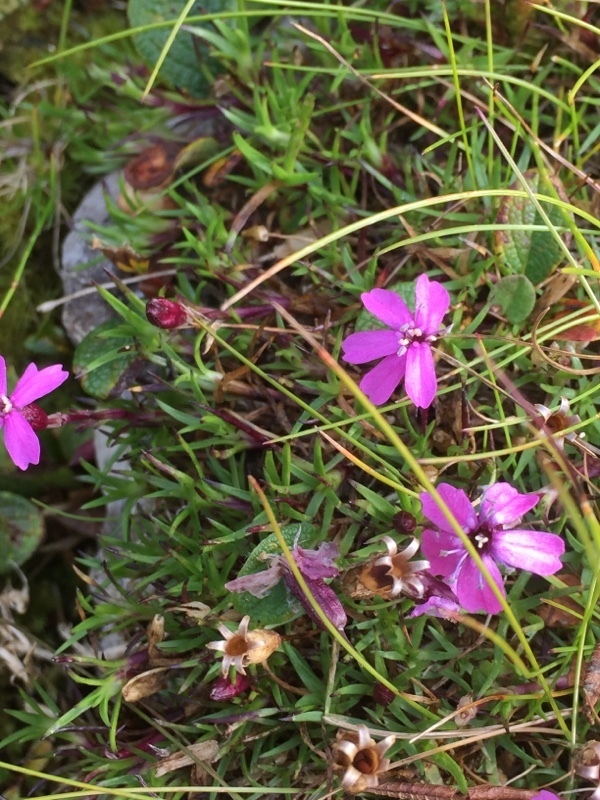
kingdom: Plantae
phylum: Tracheophyta
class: Magnoliopsida
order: Caryophyllales
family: Caryophyllaceae
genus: Silene
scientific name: Silene acaulis
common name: Moss campion
